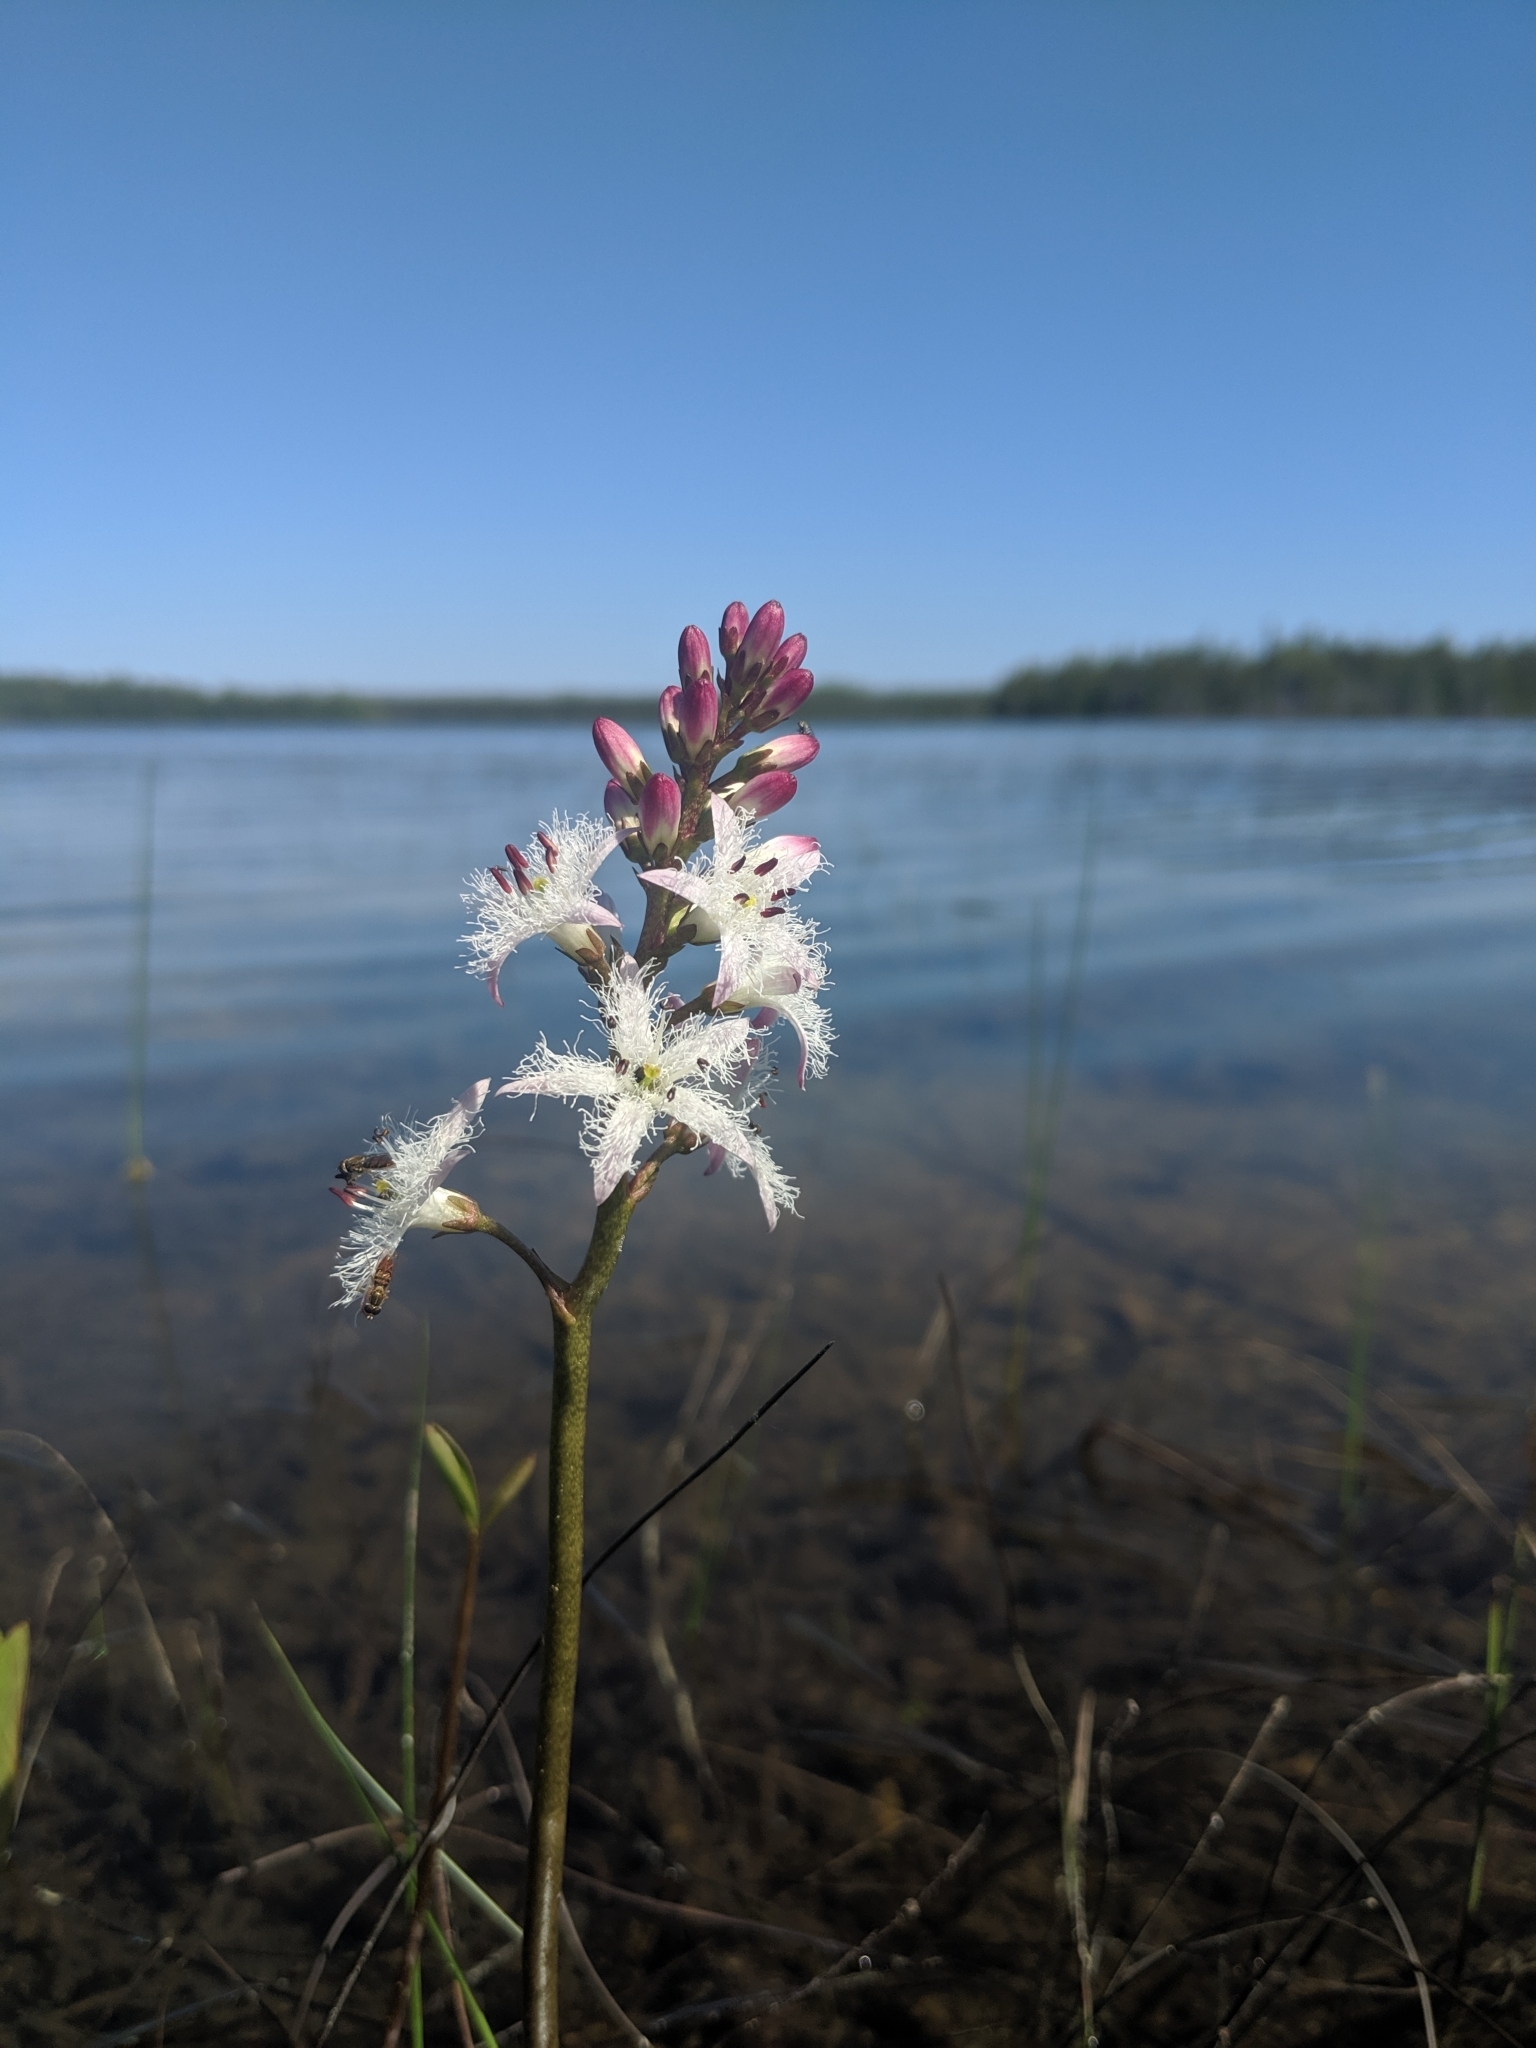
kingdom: Plantae
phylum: Tracheophyta
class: Magnoliopsida
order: Asterales
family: Menyanthaceae
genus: Menyanthes
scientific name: Menyanthes trifoliata
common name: Bogbean
